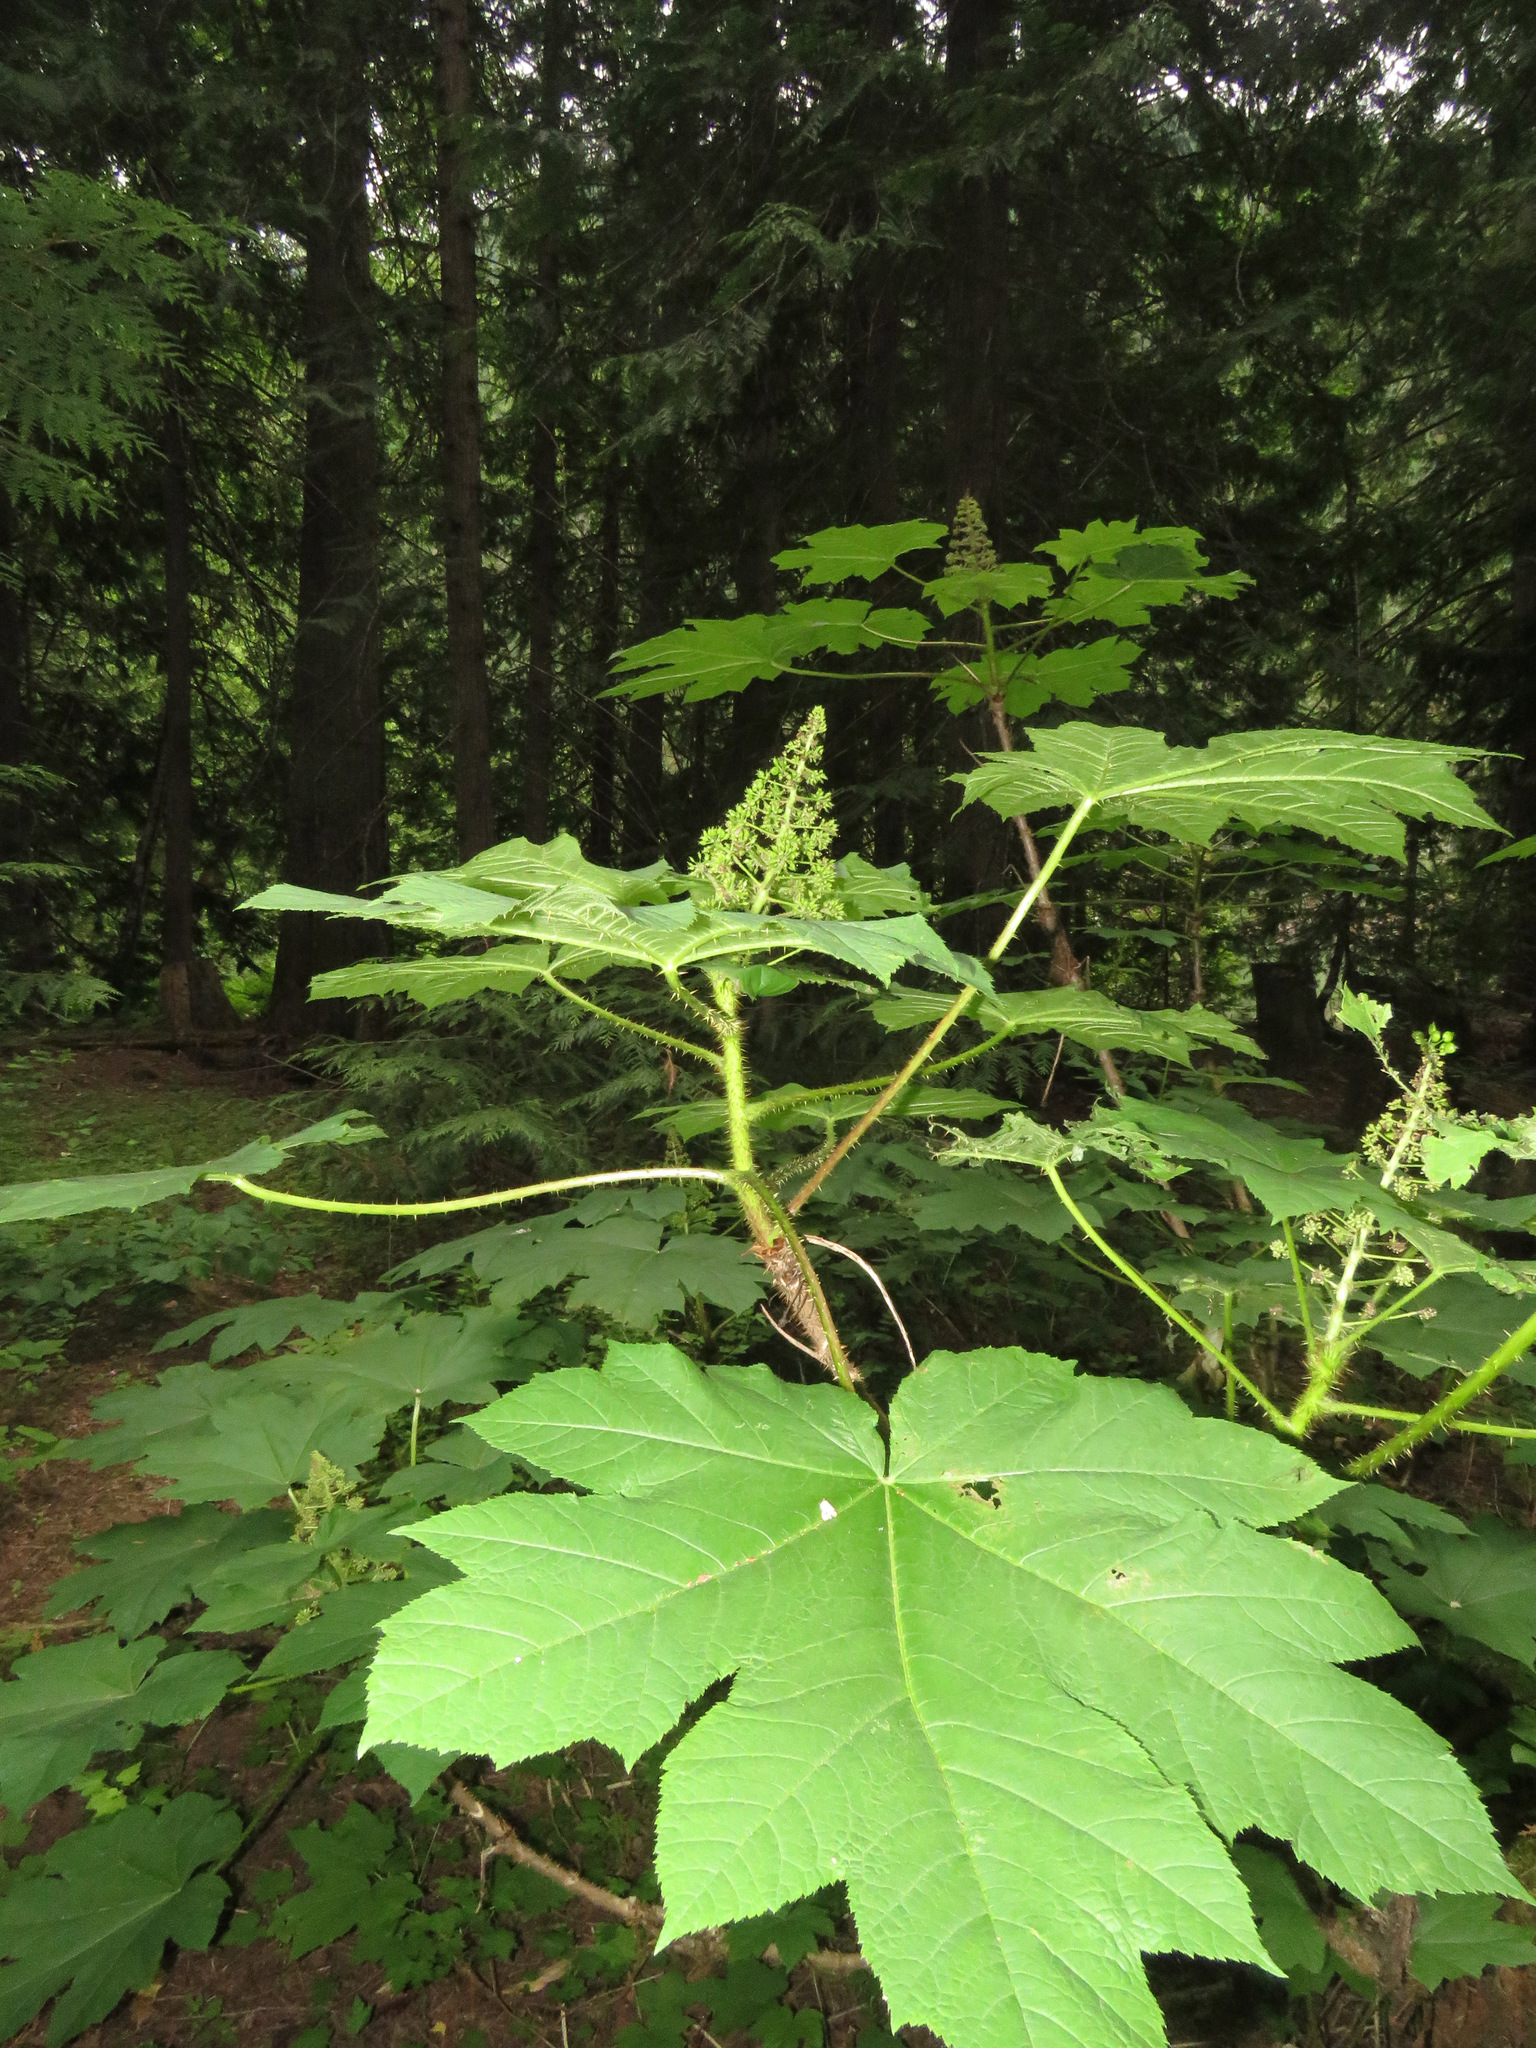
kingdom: Plantae
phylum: Tracheophyta
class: Magnoliopsida
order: Apiales
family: Araliaceae
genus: Oplopanax
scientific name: Oplopanax horridus
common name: Devil's walking-stick
